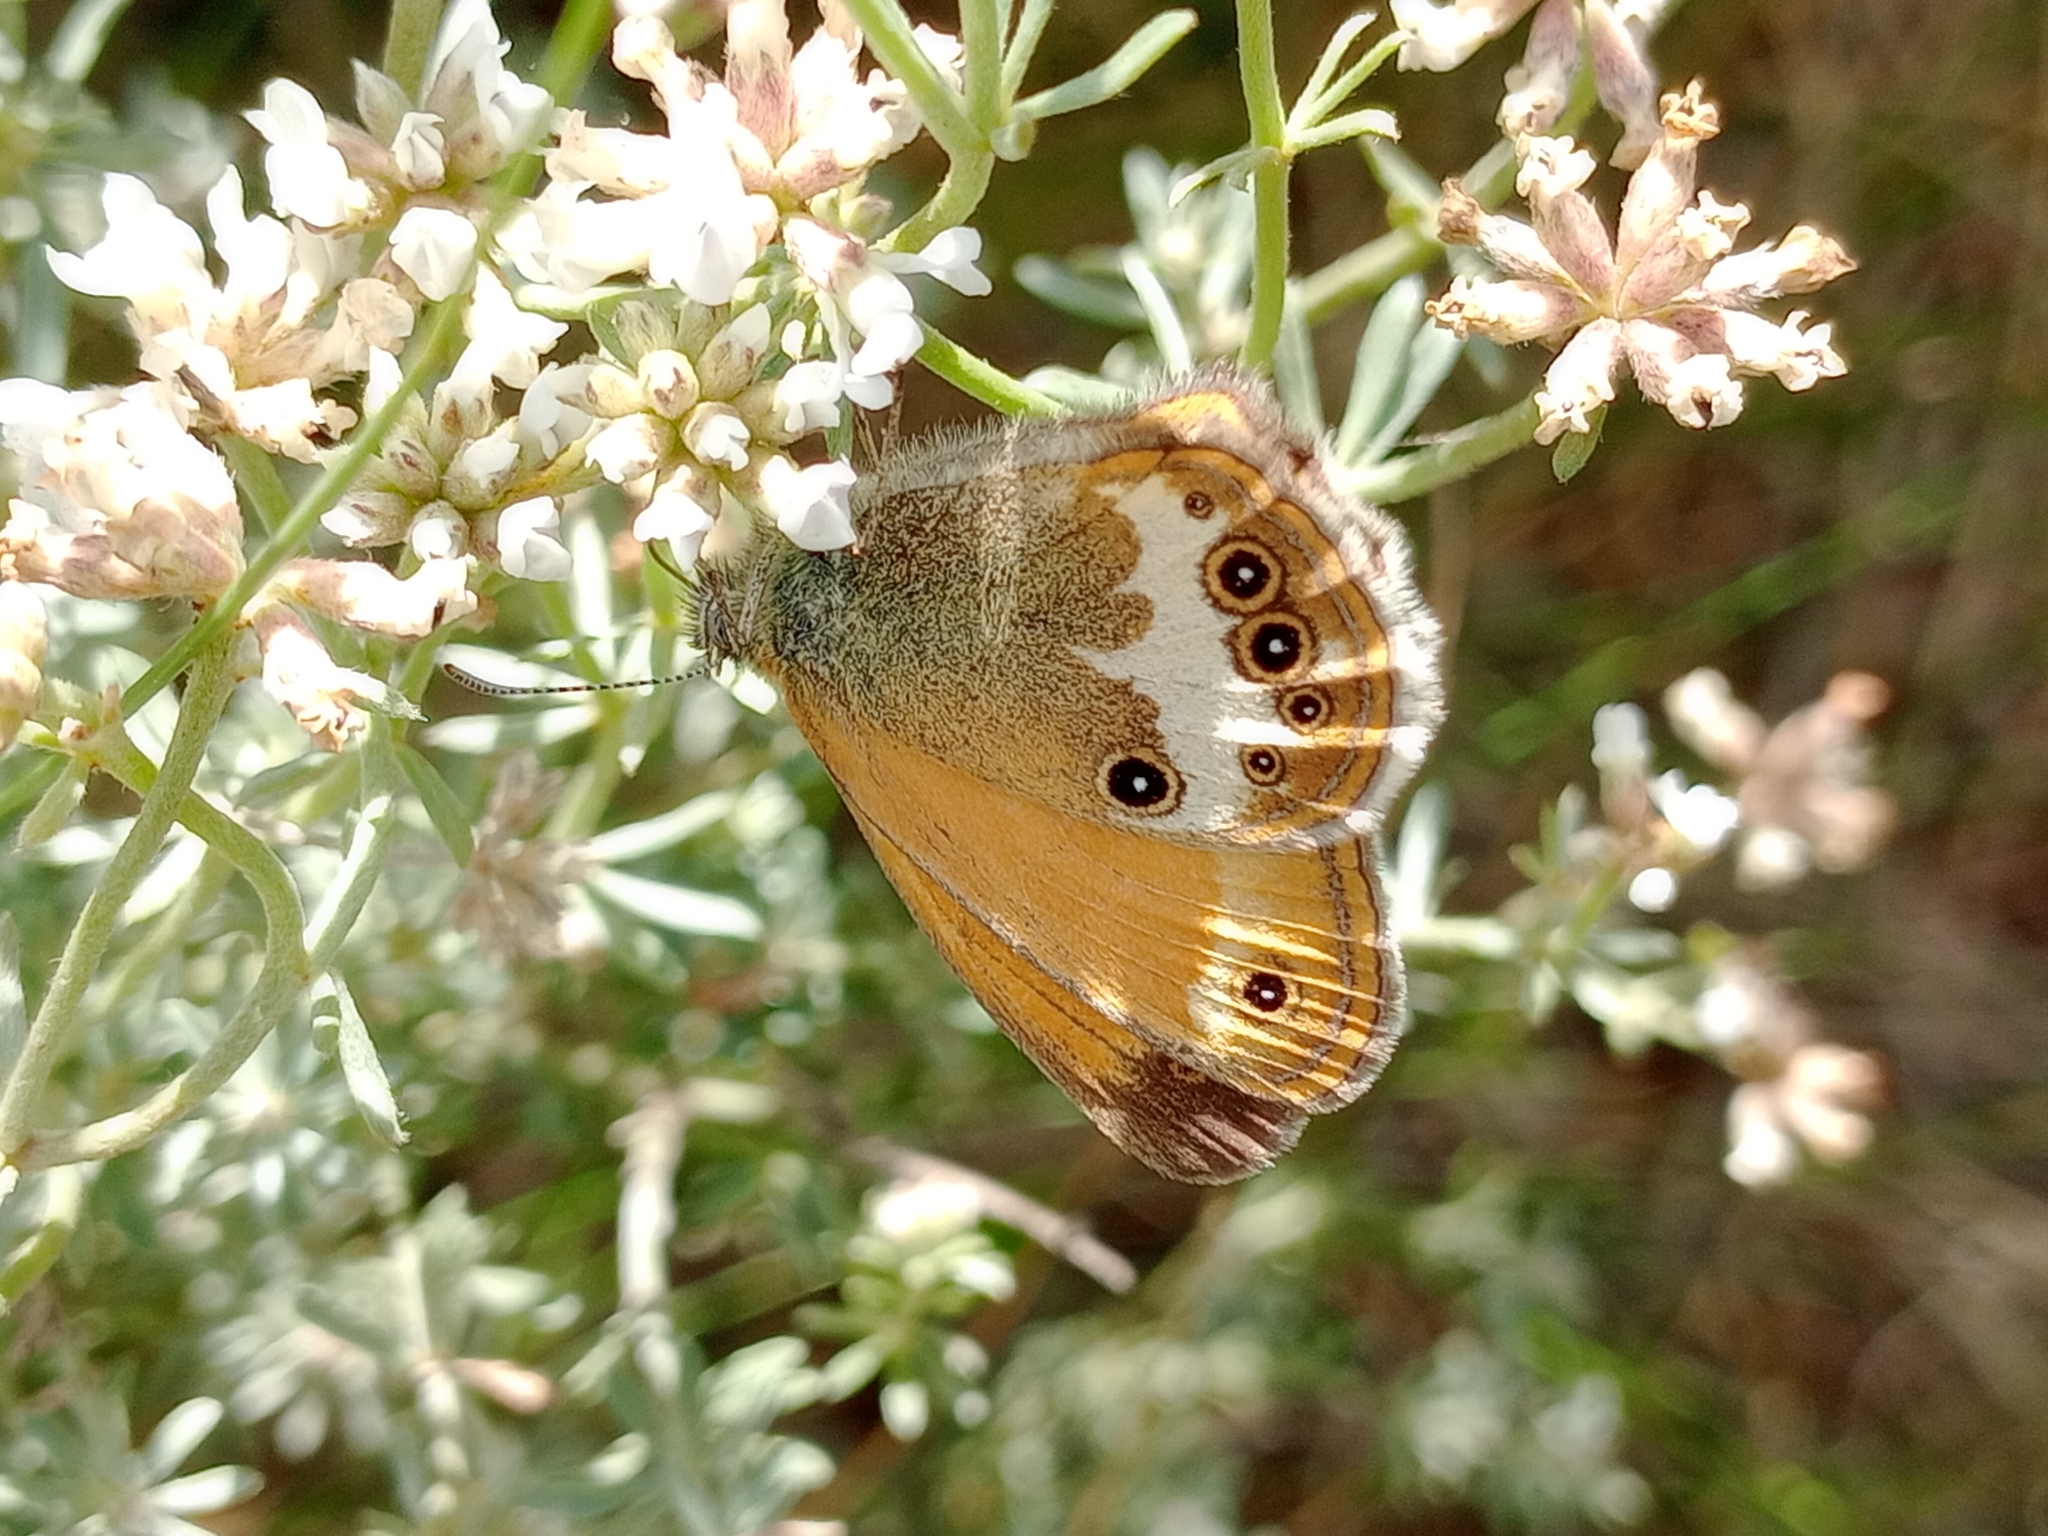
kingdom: Animalia
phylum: Arthropoda
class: Insecta
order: Lepidoptera
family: Nymphalidae
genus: Coenonympha
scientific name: Coenonympha arcania
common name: Pearly heath
